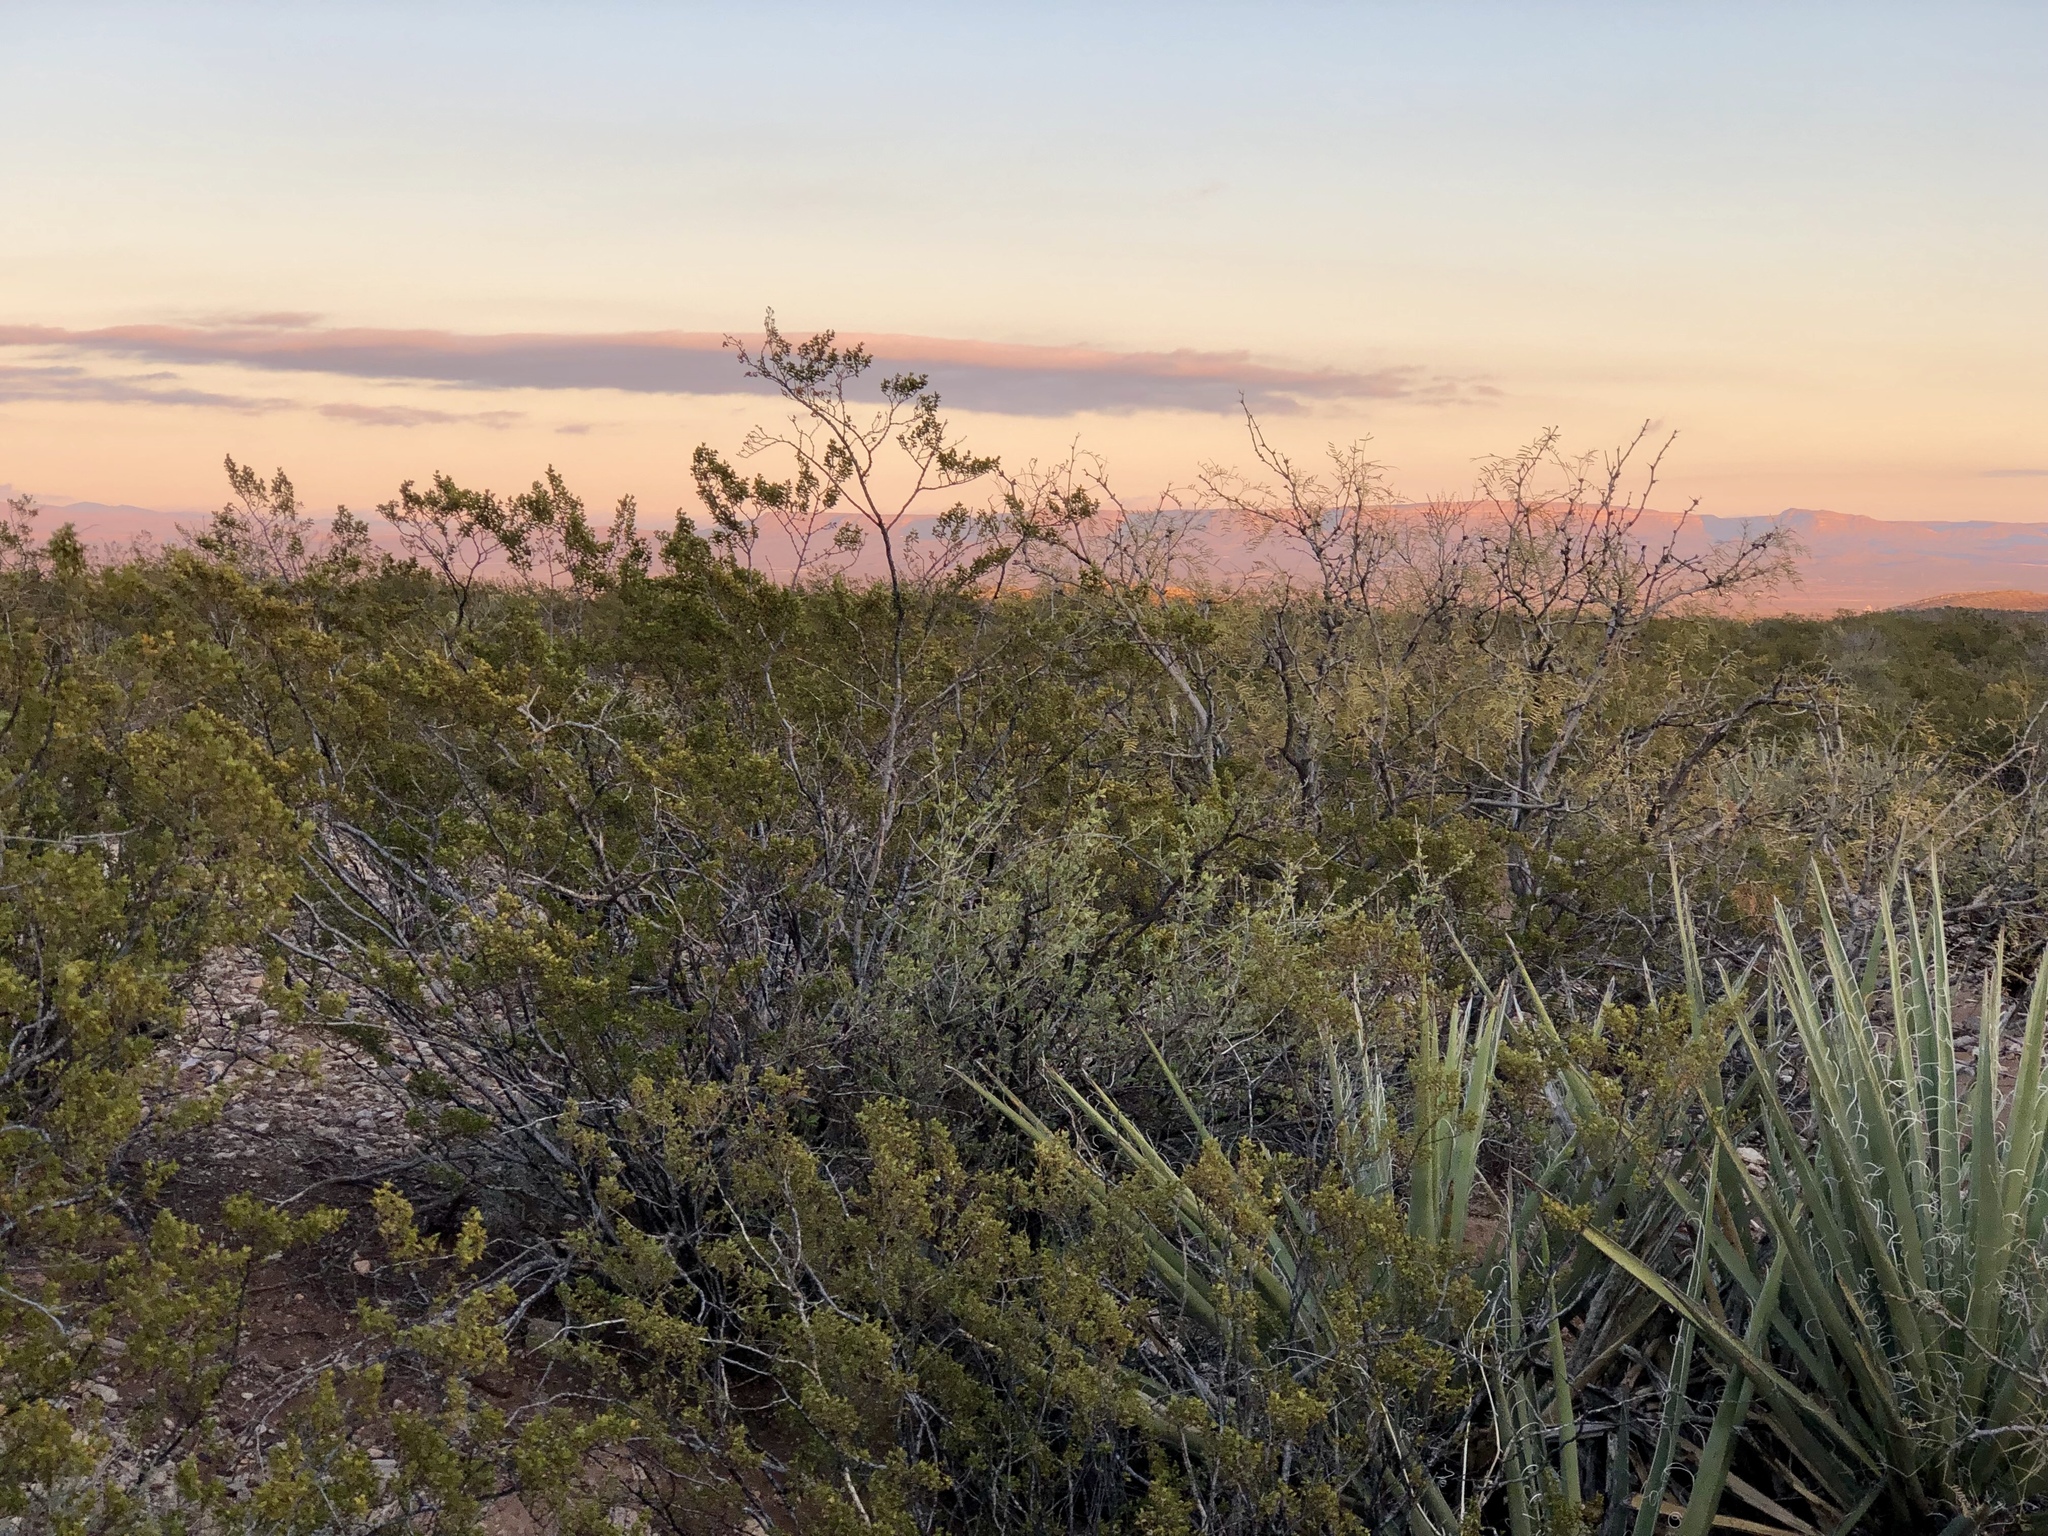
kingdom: Plantae
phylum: Tracheophyta
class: Magnoliopsida
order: Zygophyllales
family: Zygophyllaceae
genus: Larrea
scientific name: Larrea tridentata
